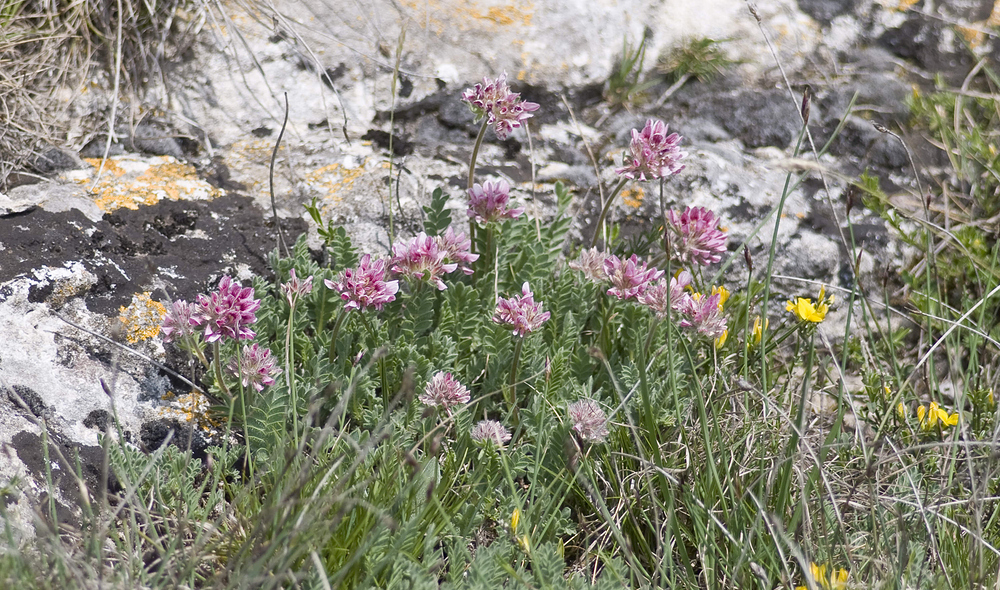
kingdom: Plantae
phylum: Tracheophyta
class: Magnoliopsida
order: Fabales
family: Fabaceae
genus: Anthyllis
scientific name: Anthyllis montana
